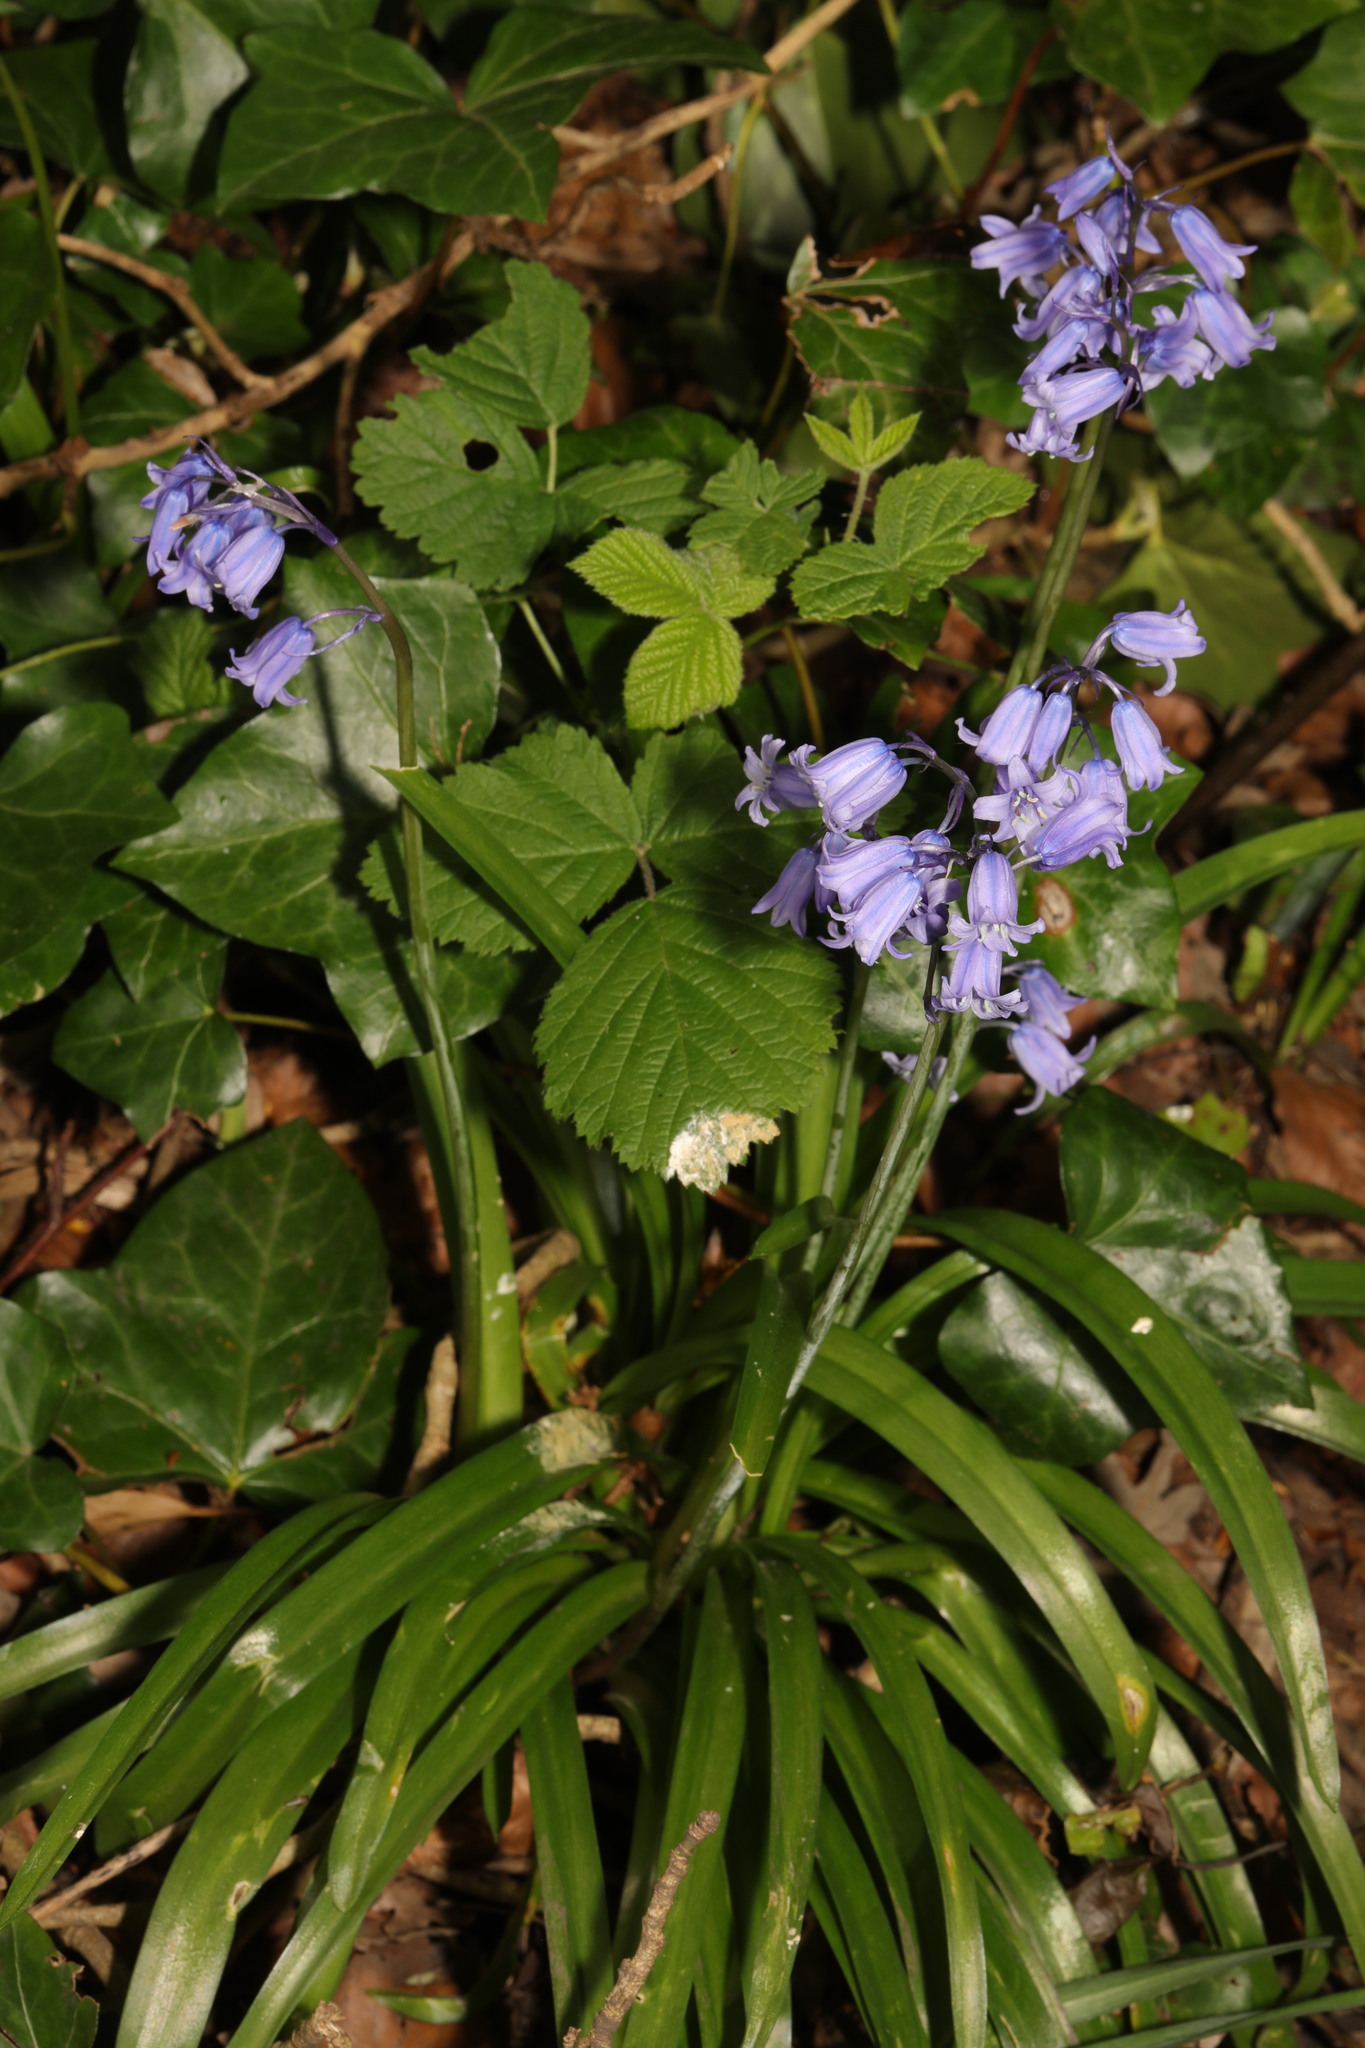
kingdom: Plantae
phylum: Tracheophyta
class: Liliopsida
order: Asparagales
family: Asparagaceae
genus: Hyacinthoides
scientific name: Hyacinthoides massartiana
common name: Hyacinthoides
